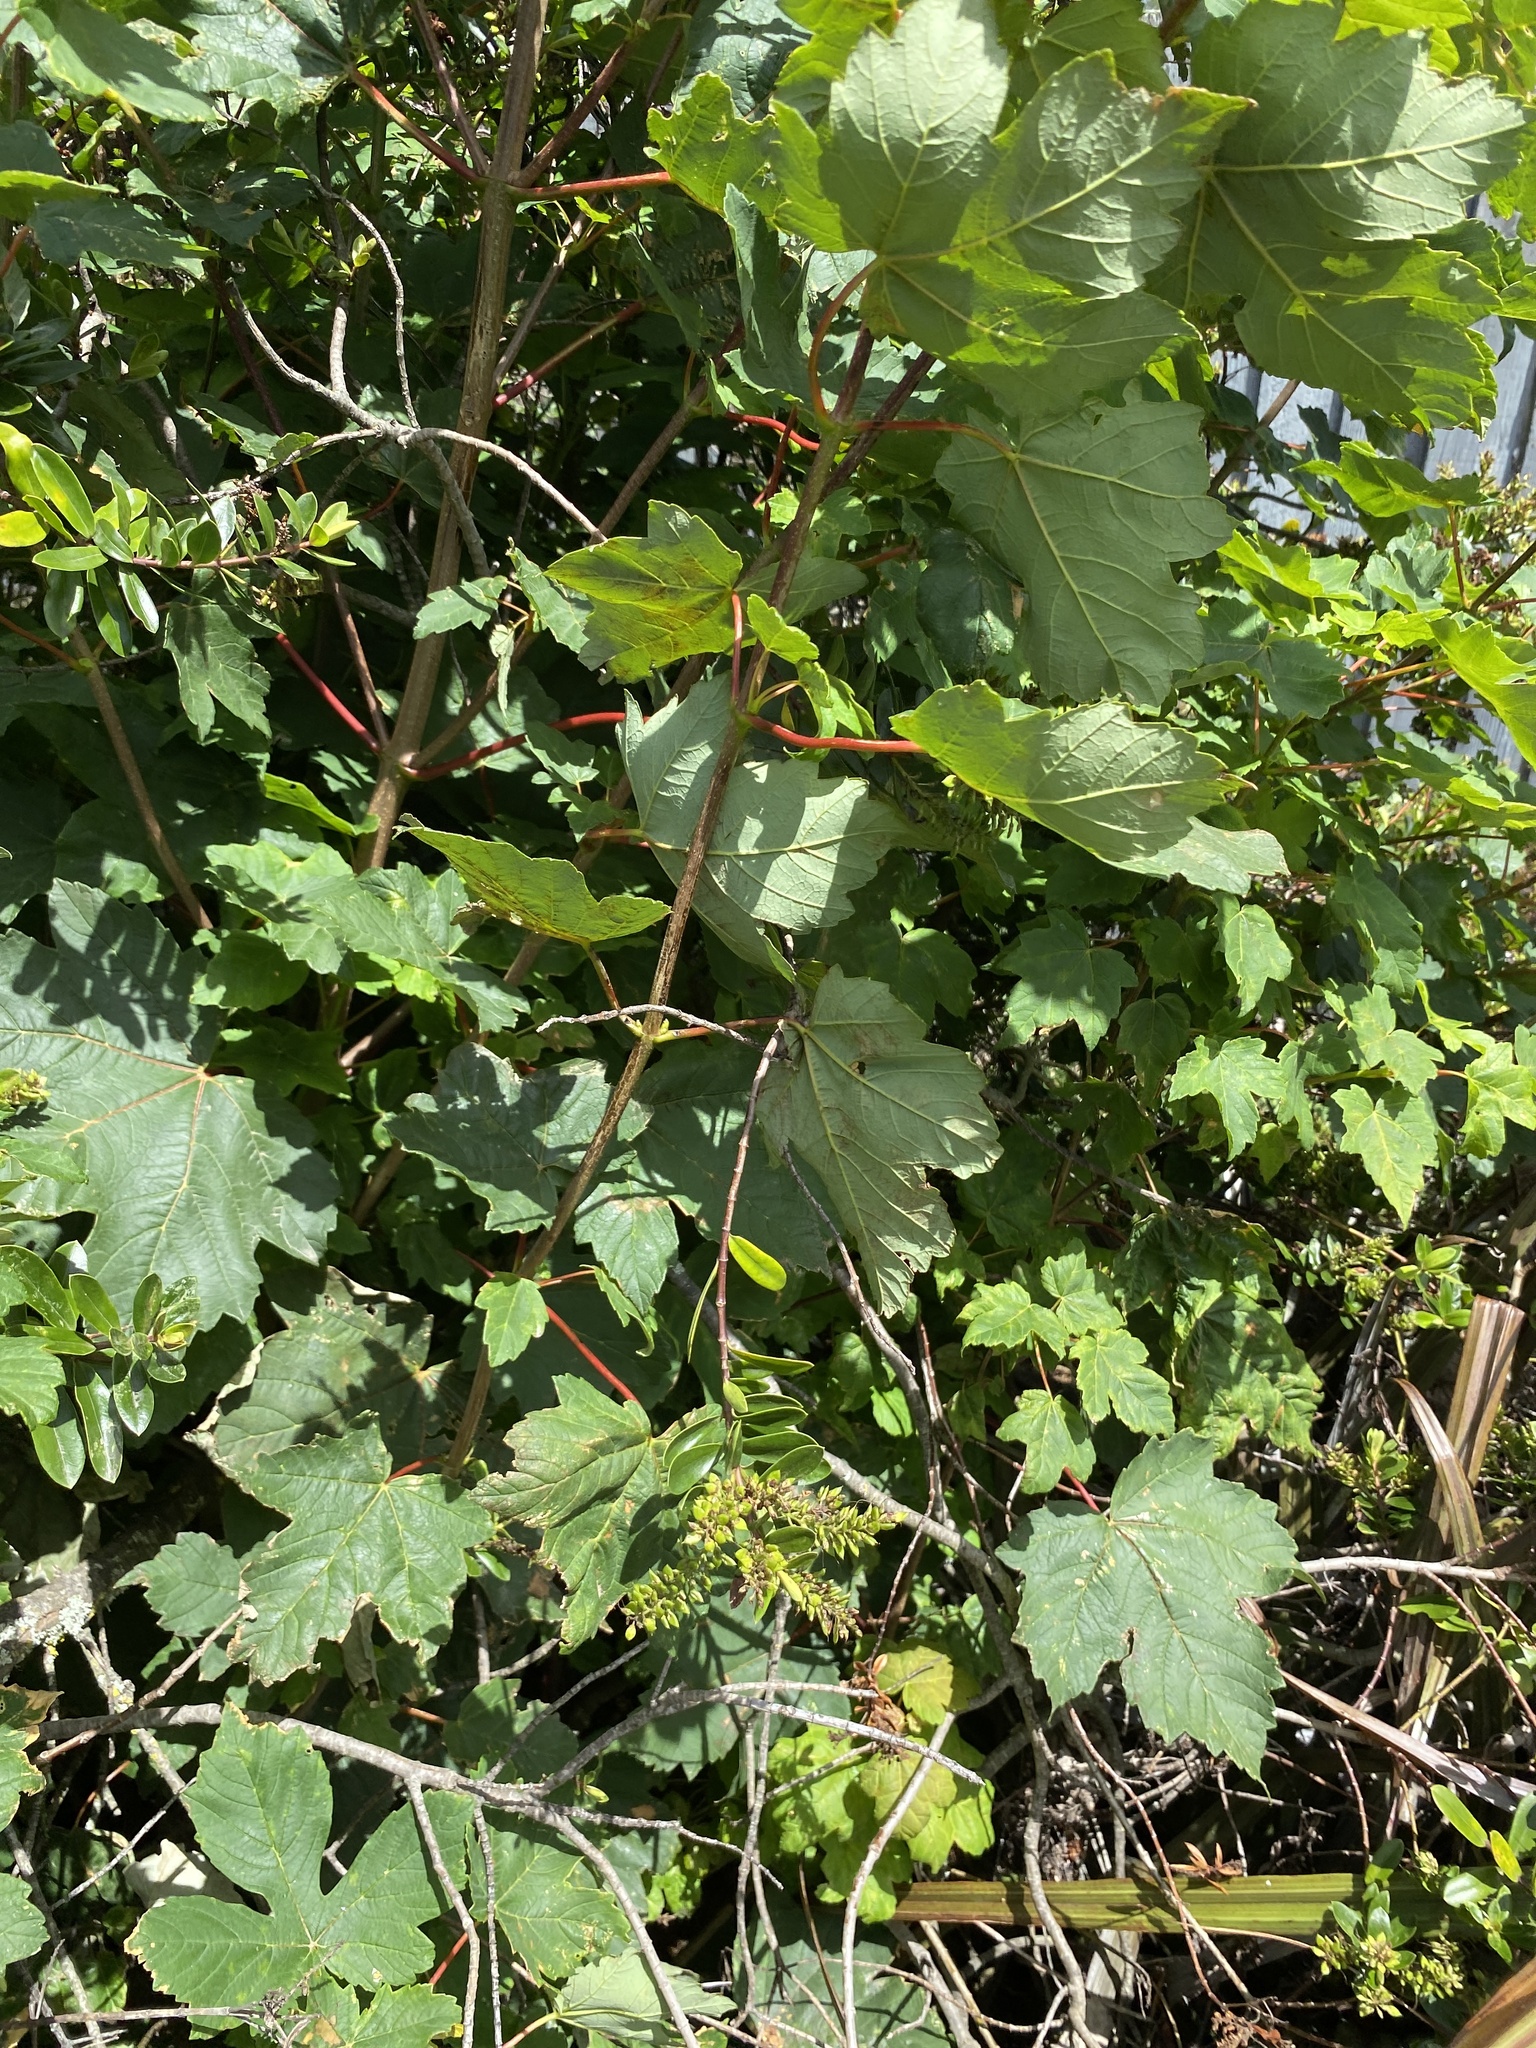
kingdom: Plantae
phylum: Tracheophyta
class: Magnoliopsida
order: Sapindales
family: Sapindaceae
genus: Acer
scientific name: Acer pseudoplatanus
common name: Sycamore
